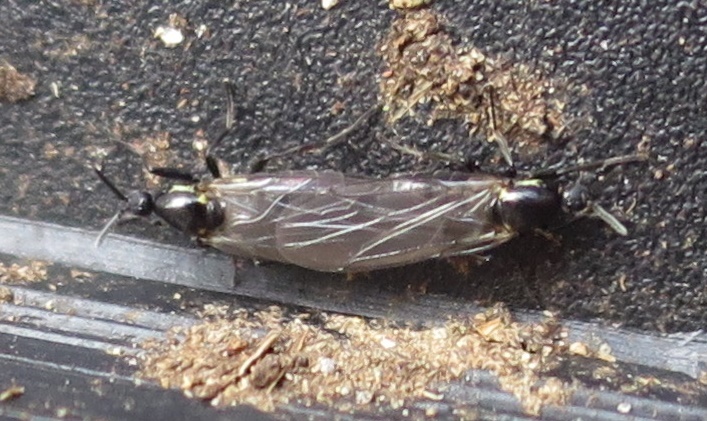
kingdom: Animalia
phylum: Arthropoda
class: Insecta
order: Diptera
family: Scatopsidae
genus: Scatopse
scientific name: Scatopse notata
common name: Minute black scavenger fly
